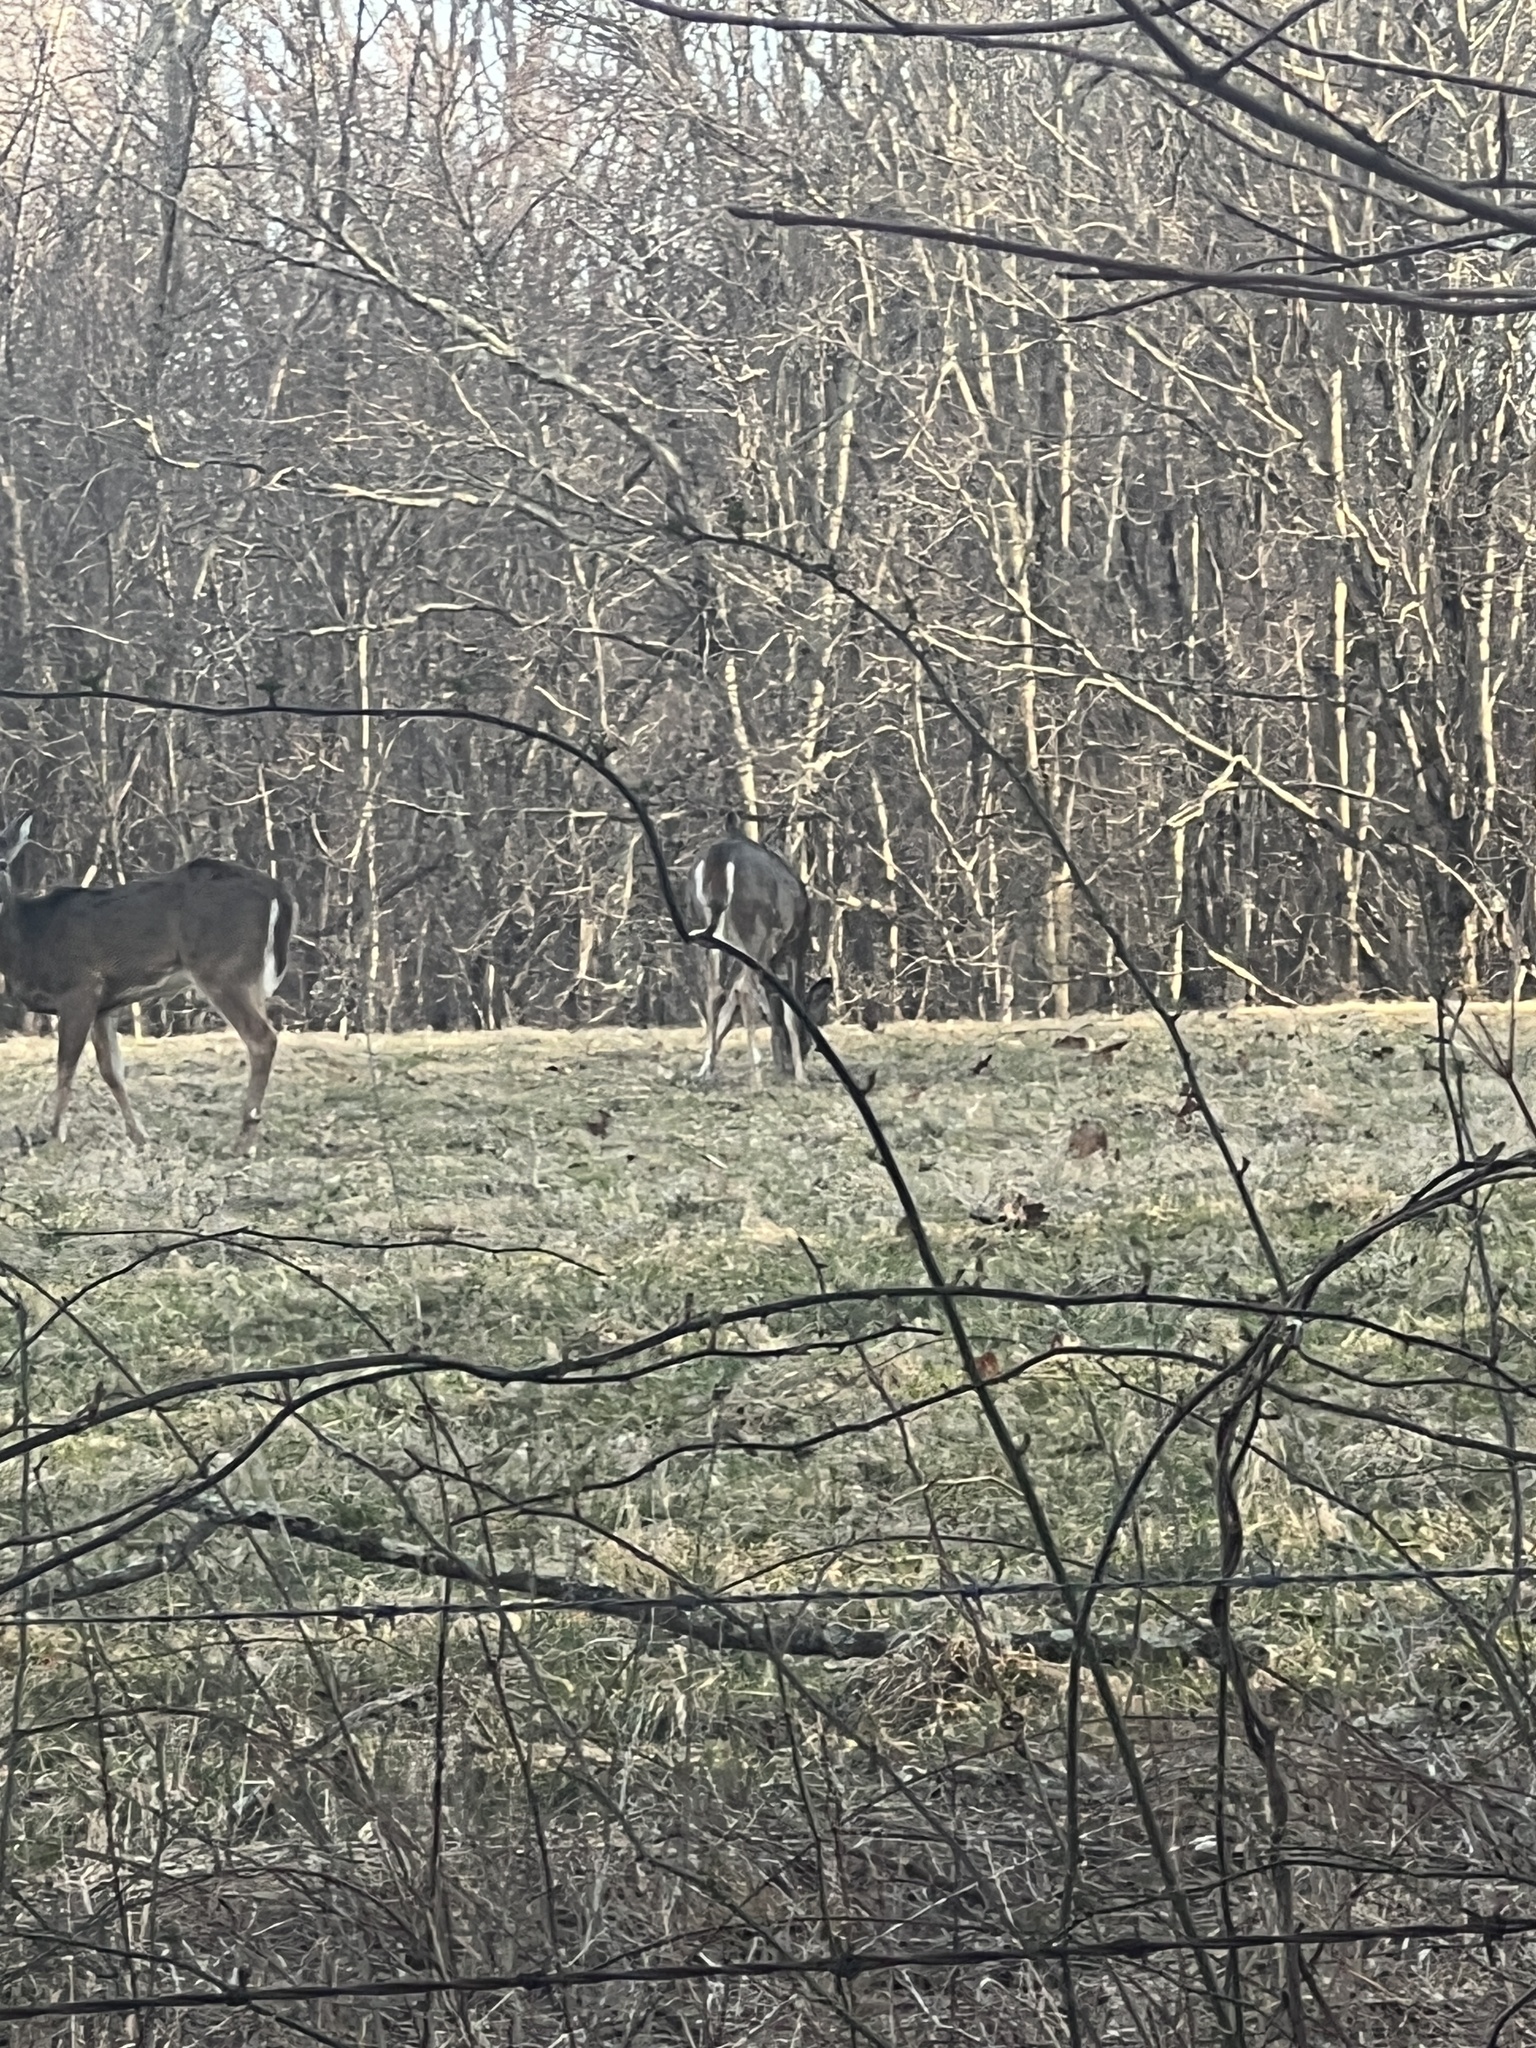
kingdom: Animalia
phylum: Chordata
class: Mammalia
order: Artiodactyla
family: Cervidae
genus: Odocoileus
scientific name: Odocoileus virginianus
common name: White-tailed deer
